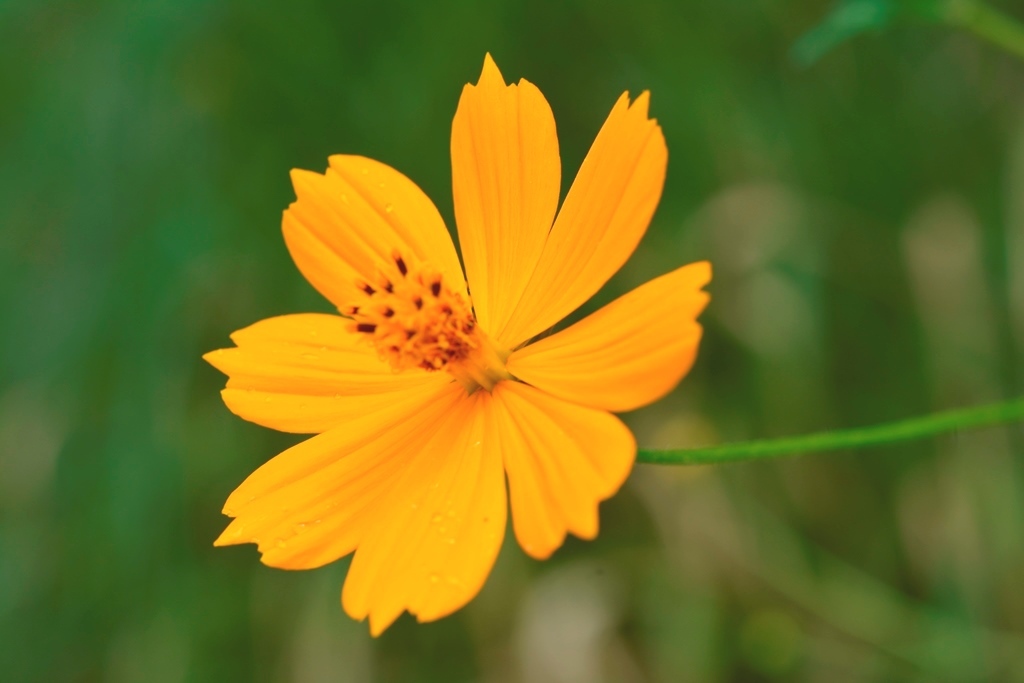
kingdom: Plantae
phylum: Tracheophyta
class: Magnoliopsida
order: Asterales
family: Asteraceae
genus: Cosmos
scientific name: Cosmos sulphureus
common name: Sulphur cosmos
